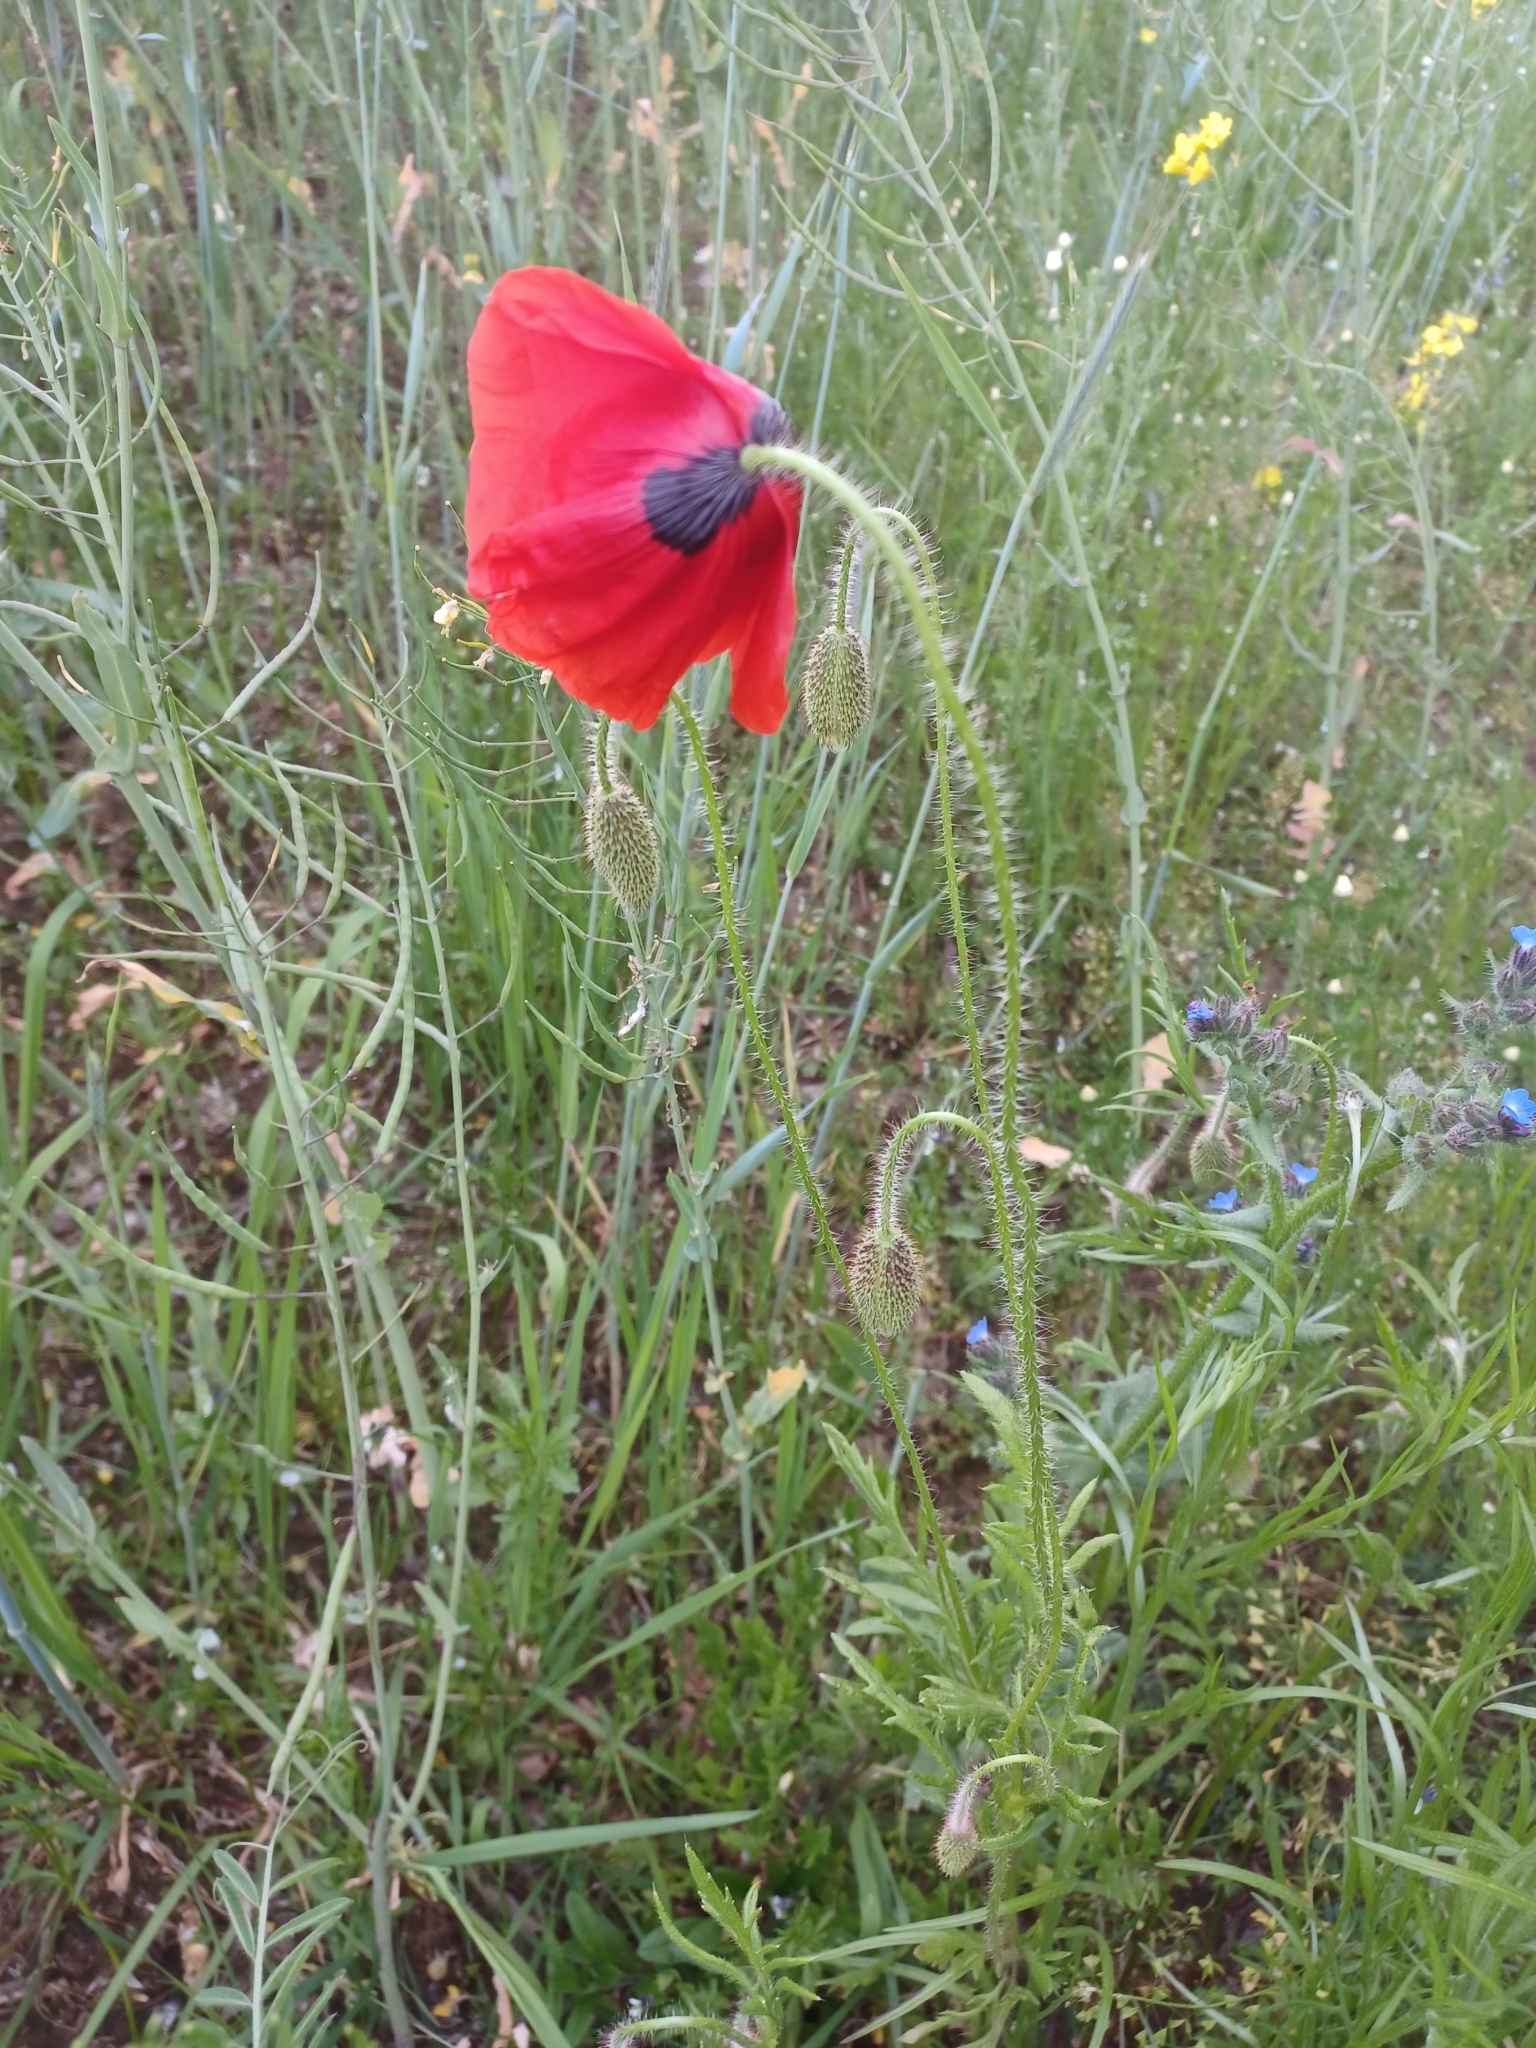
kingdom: Plantae
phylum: Tracheophyta
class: Magnoliopsida
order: Ranunculales
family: Papaveraceae
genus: Papaver
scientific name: Papaver rhoeas
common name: Corn poppy
